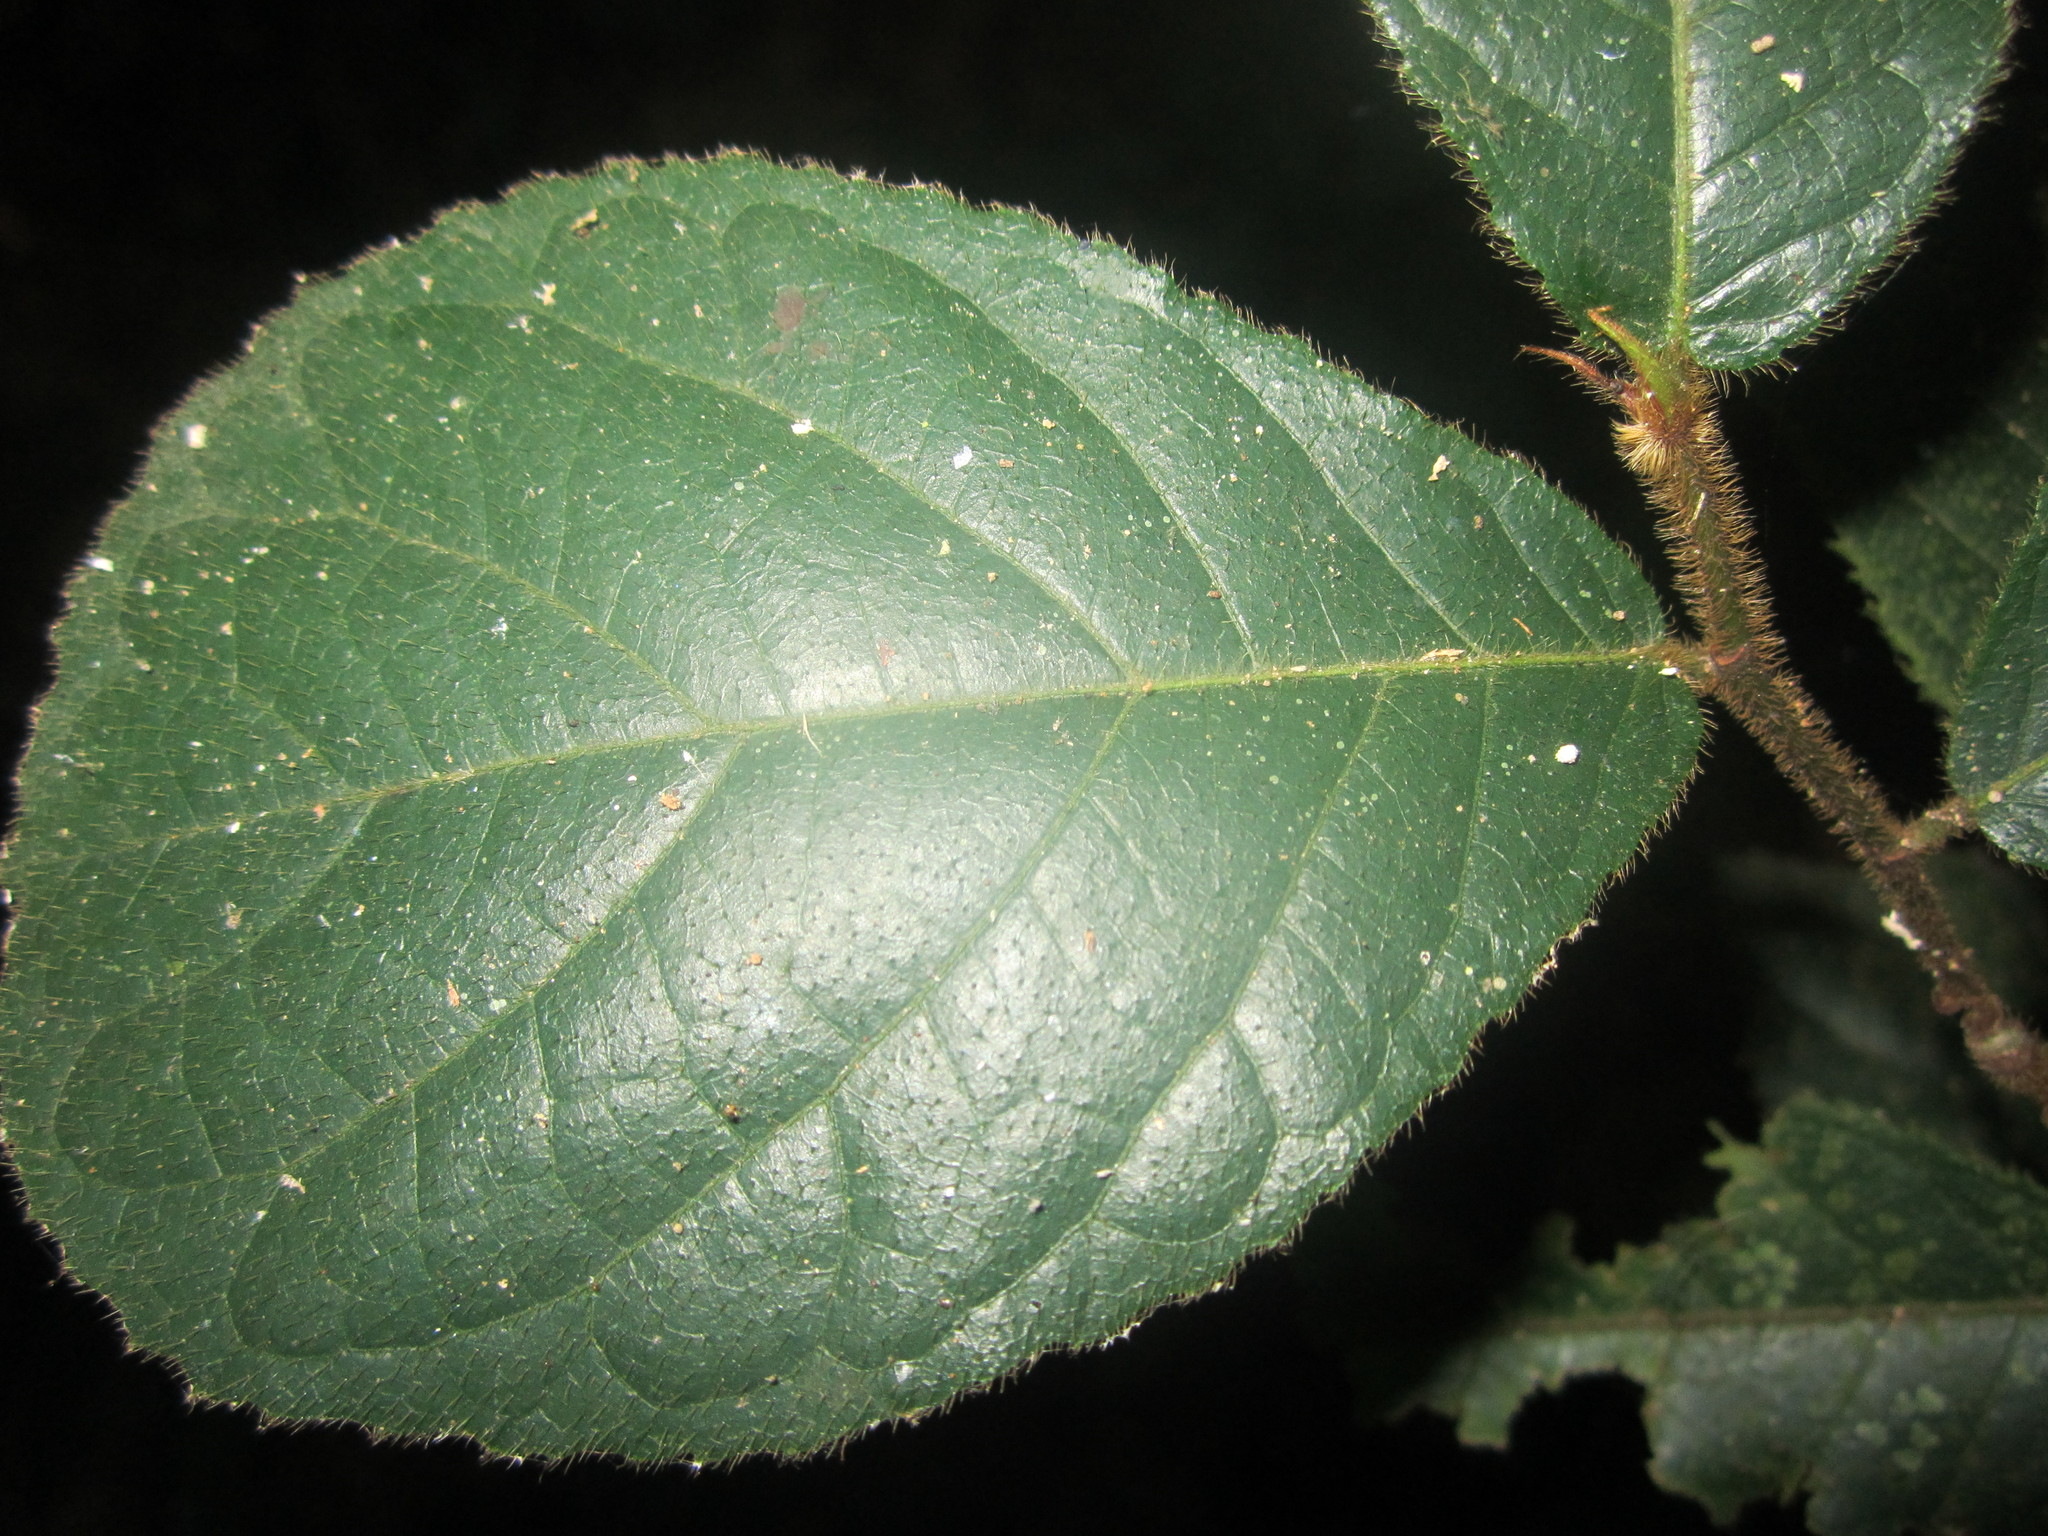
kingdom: Plantae
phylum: Tracheophyta
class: Magnoliopsida
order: Rosales
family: Moraceae
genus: Antiaris
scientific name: Antiaris toxicaria
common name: Sackingtree
